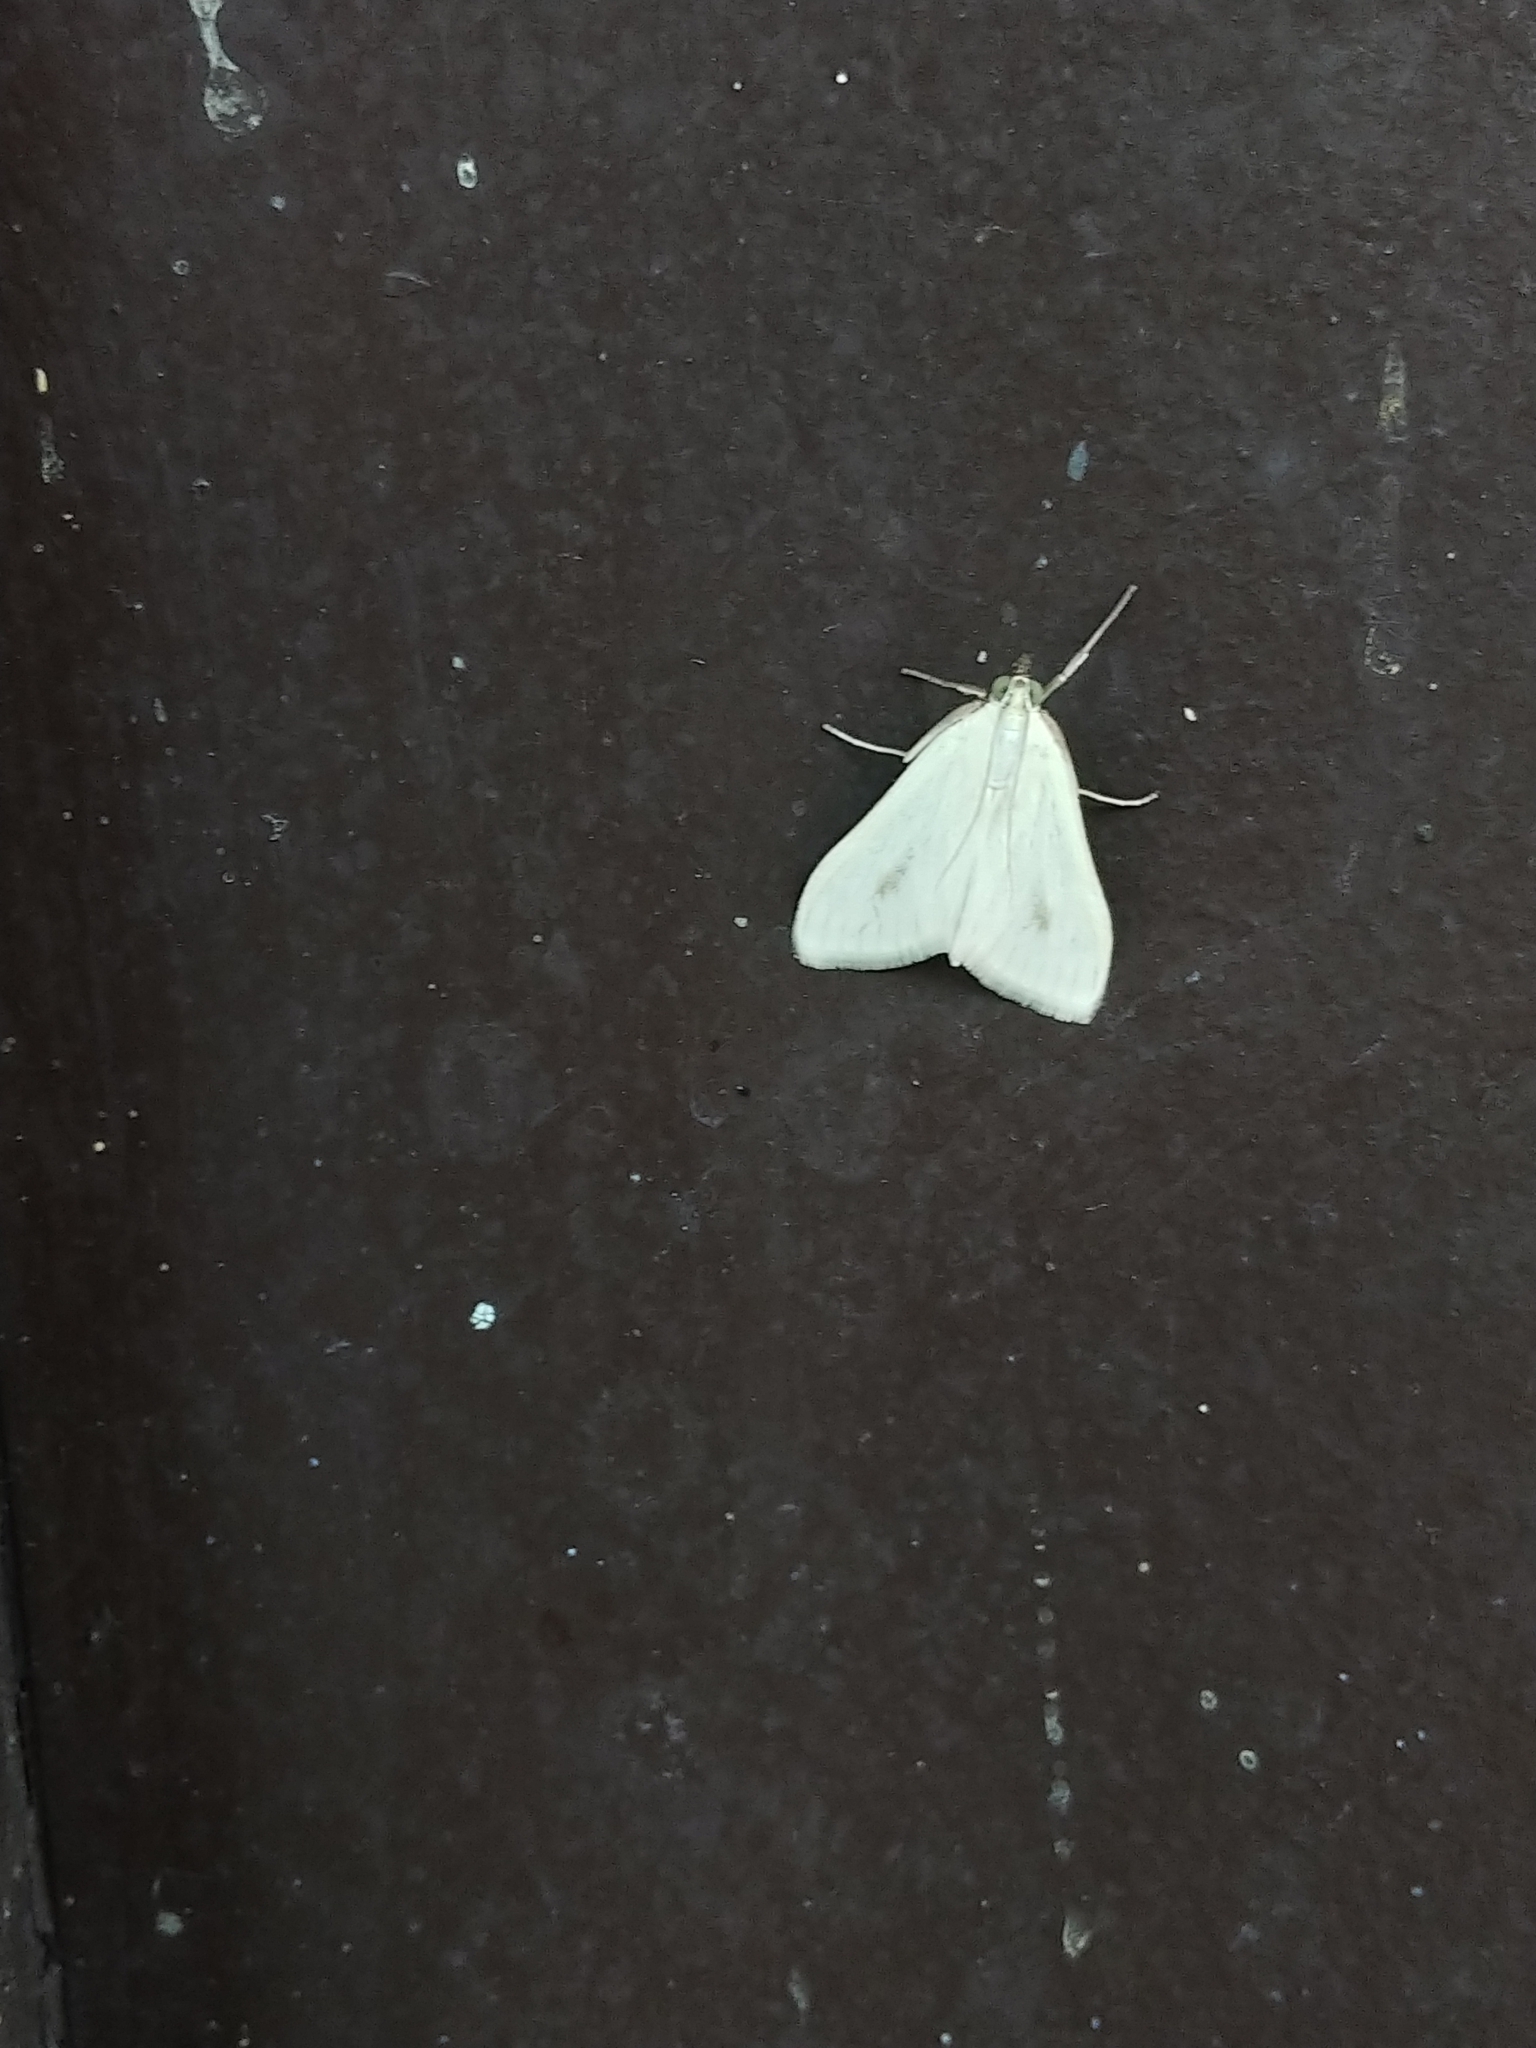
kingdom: Animalia
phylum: Arthropoda
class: Insecta
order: Lepidoptera
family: Crambidae
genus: Sitochroa
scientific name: Sitochroa palealis
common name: Greenish-yellow sitochroa moth
